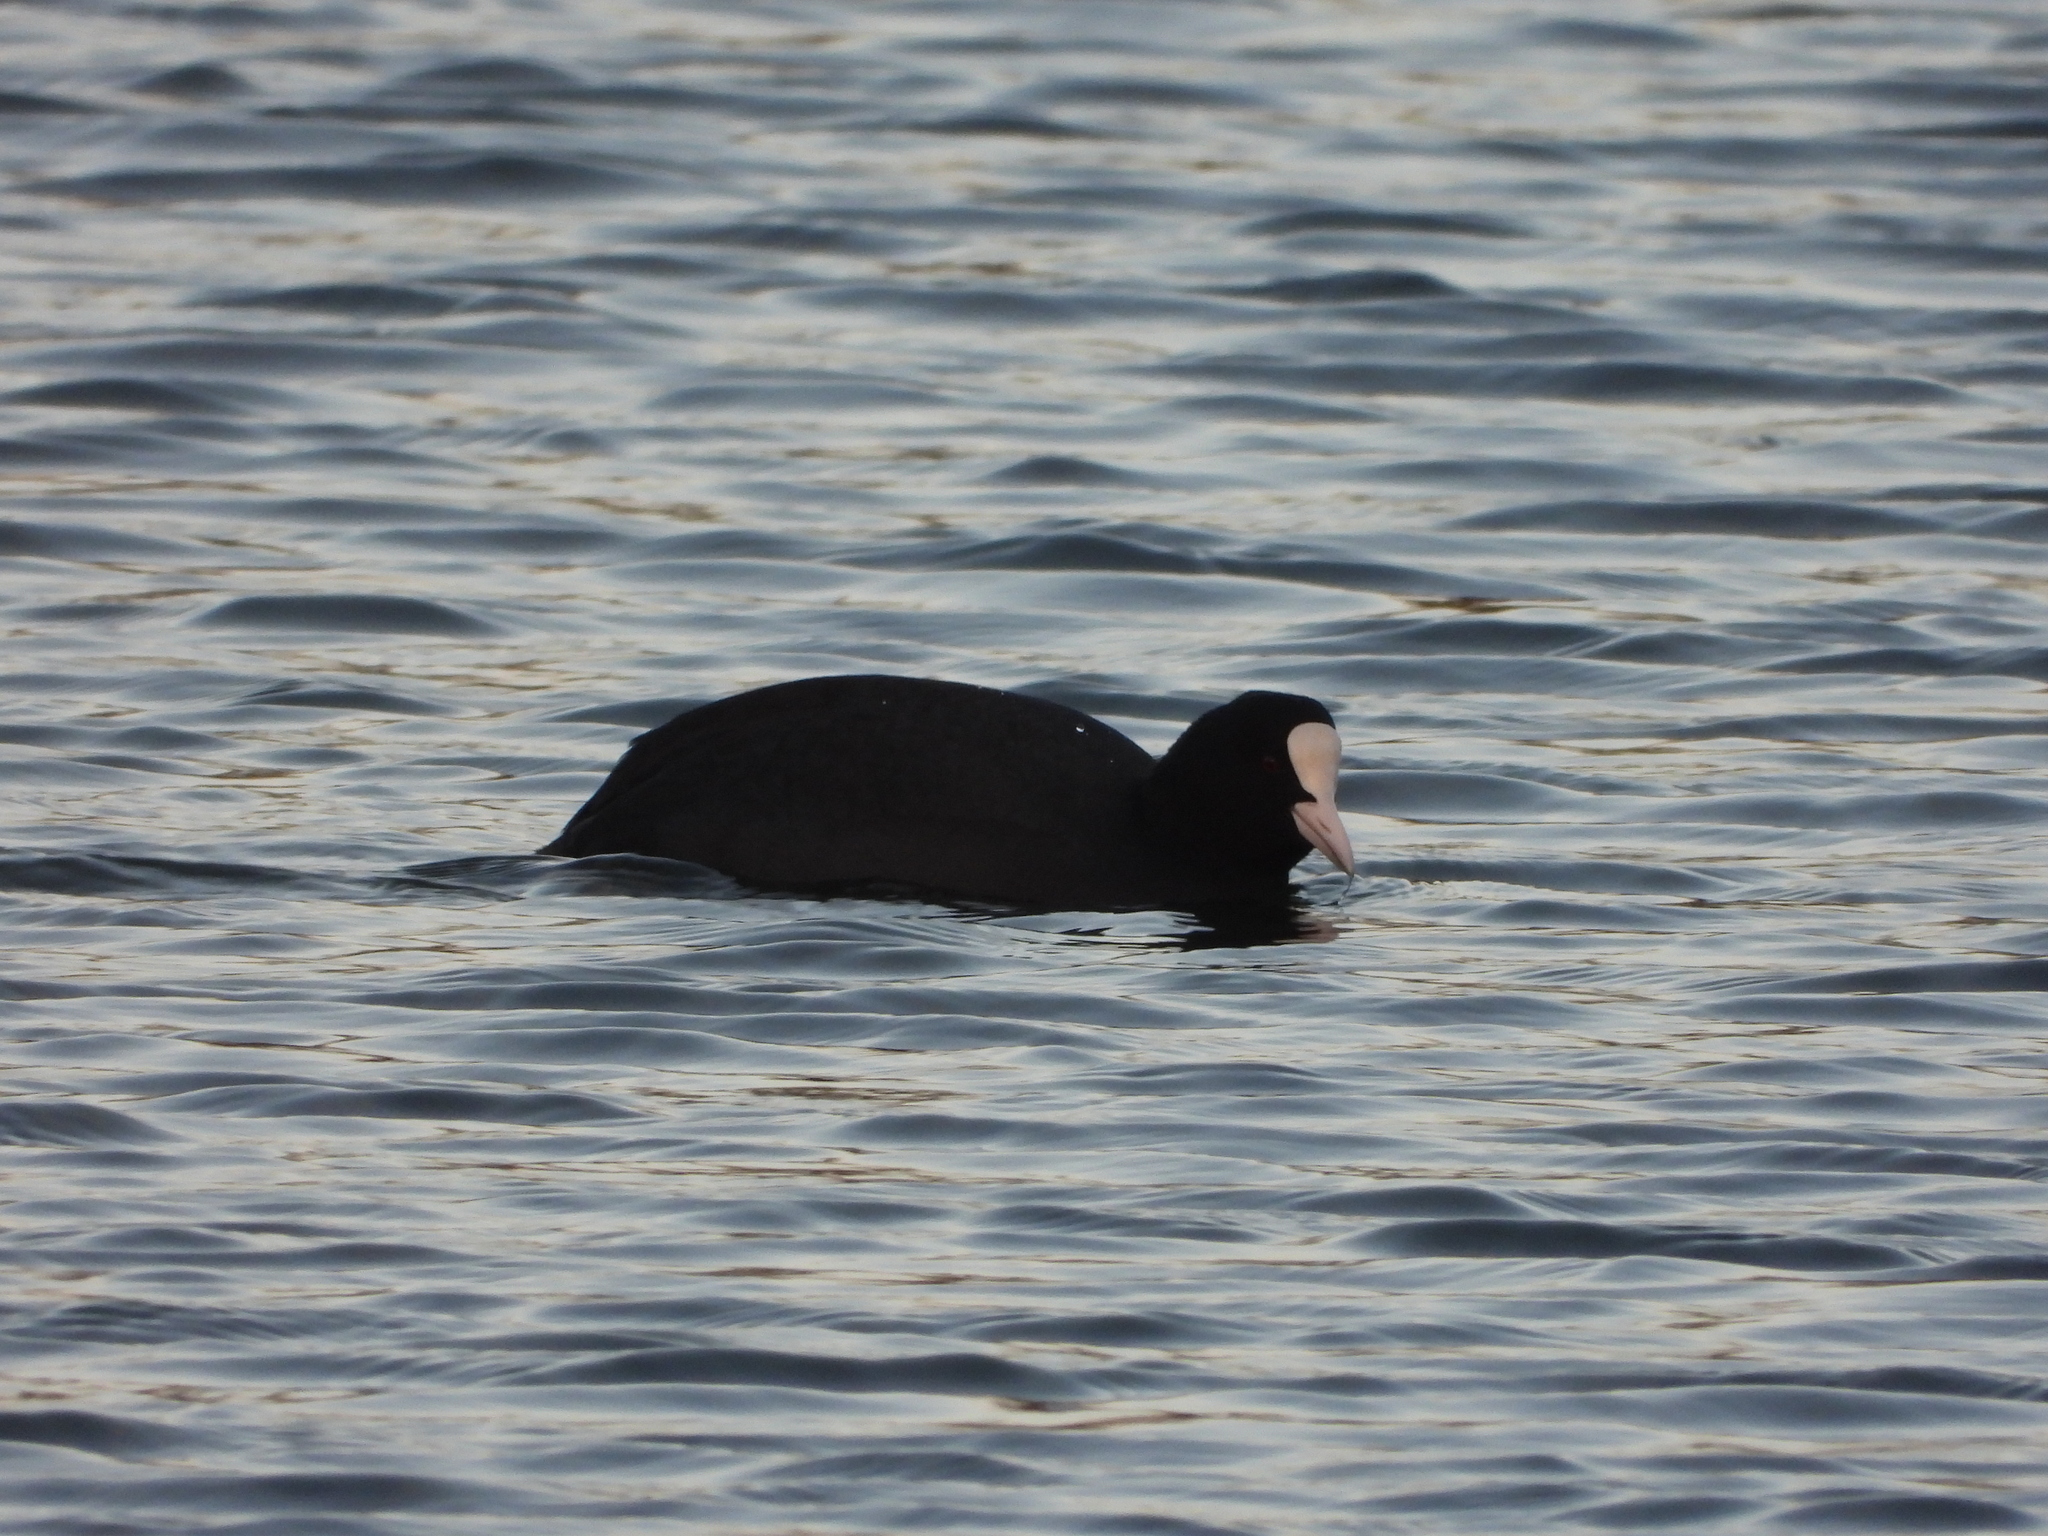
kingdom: Animalia
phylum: Chordata
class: Aves
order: Gruiformes
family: Rallidae
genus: Fulica
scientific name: Fulica atra
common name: Eurasian coot
